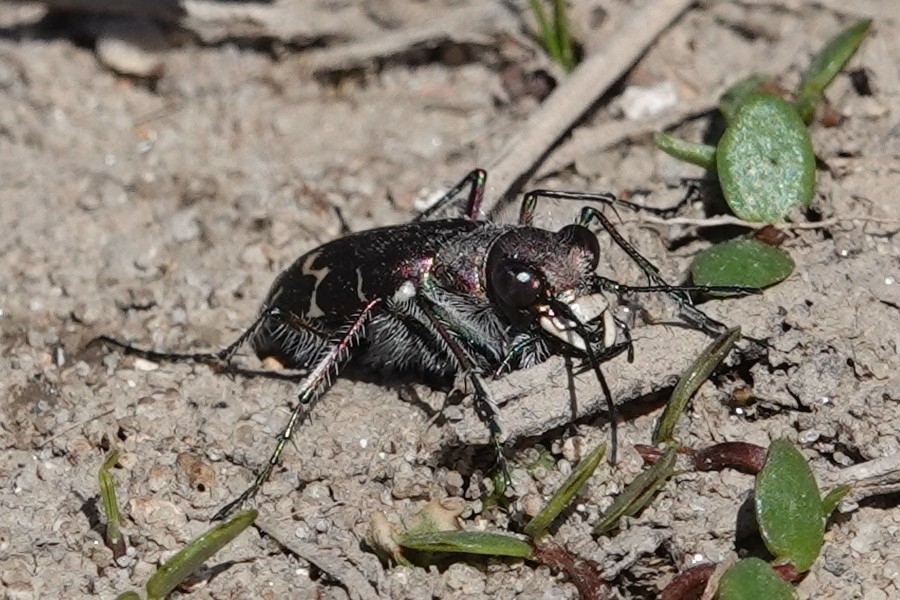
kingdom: Animalia
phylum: Arthropoda
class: Insecta
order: Coleoptera
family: Carabidae
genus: Cicindela
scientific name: Cicindela tranquebarica
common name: Oblique-lined tiger beetle
